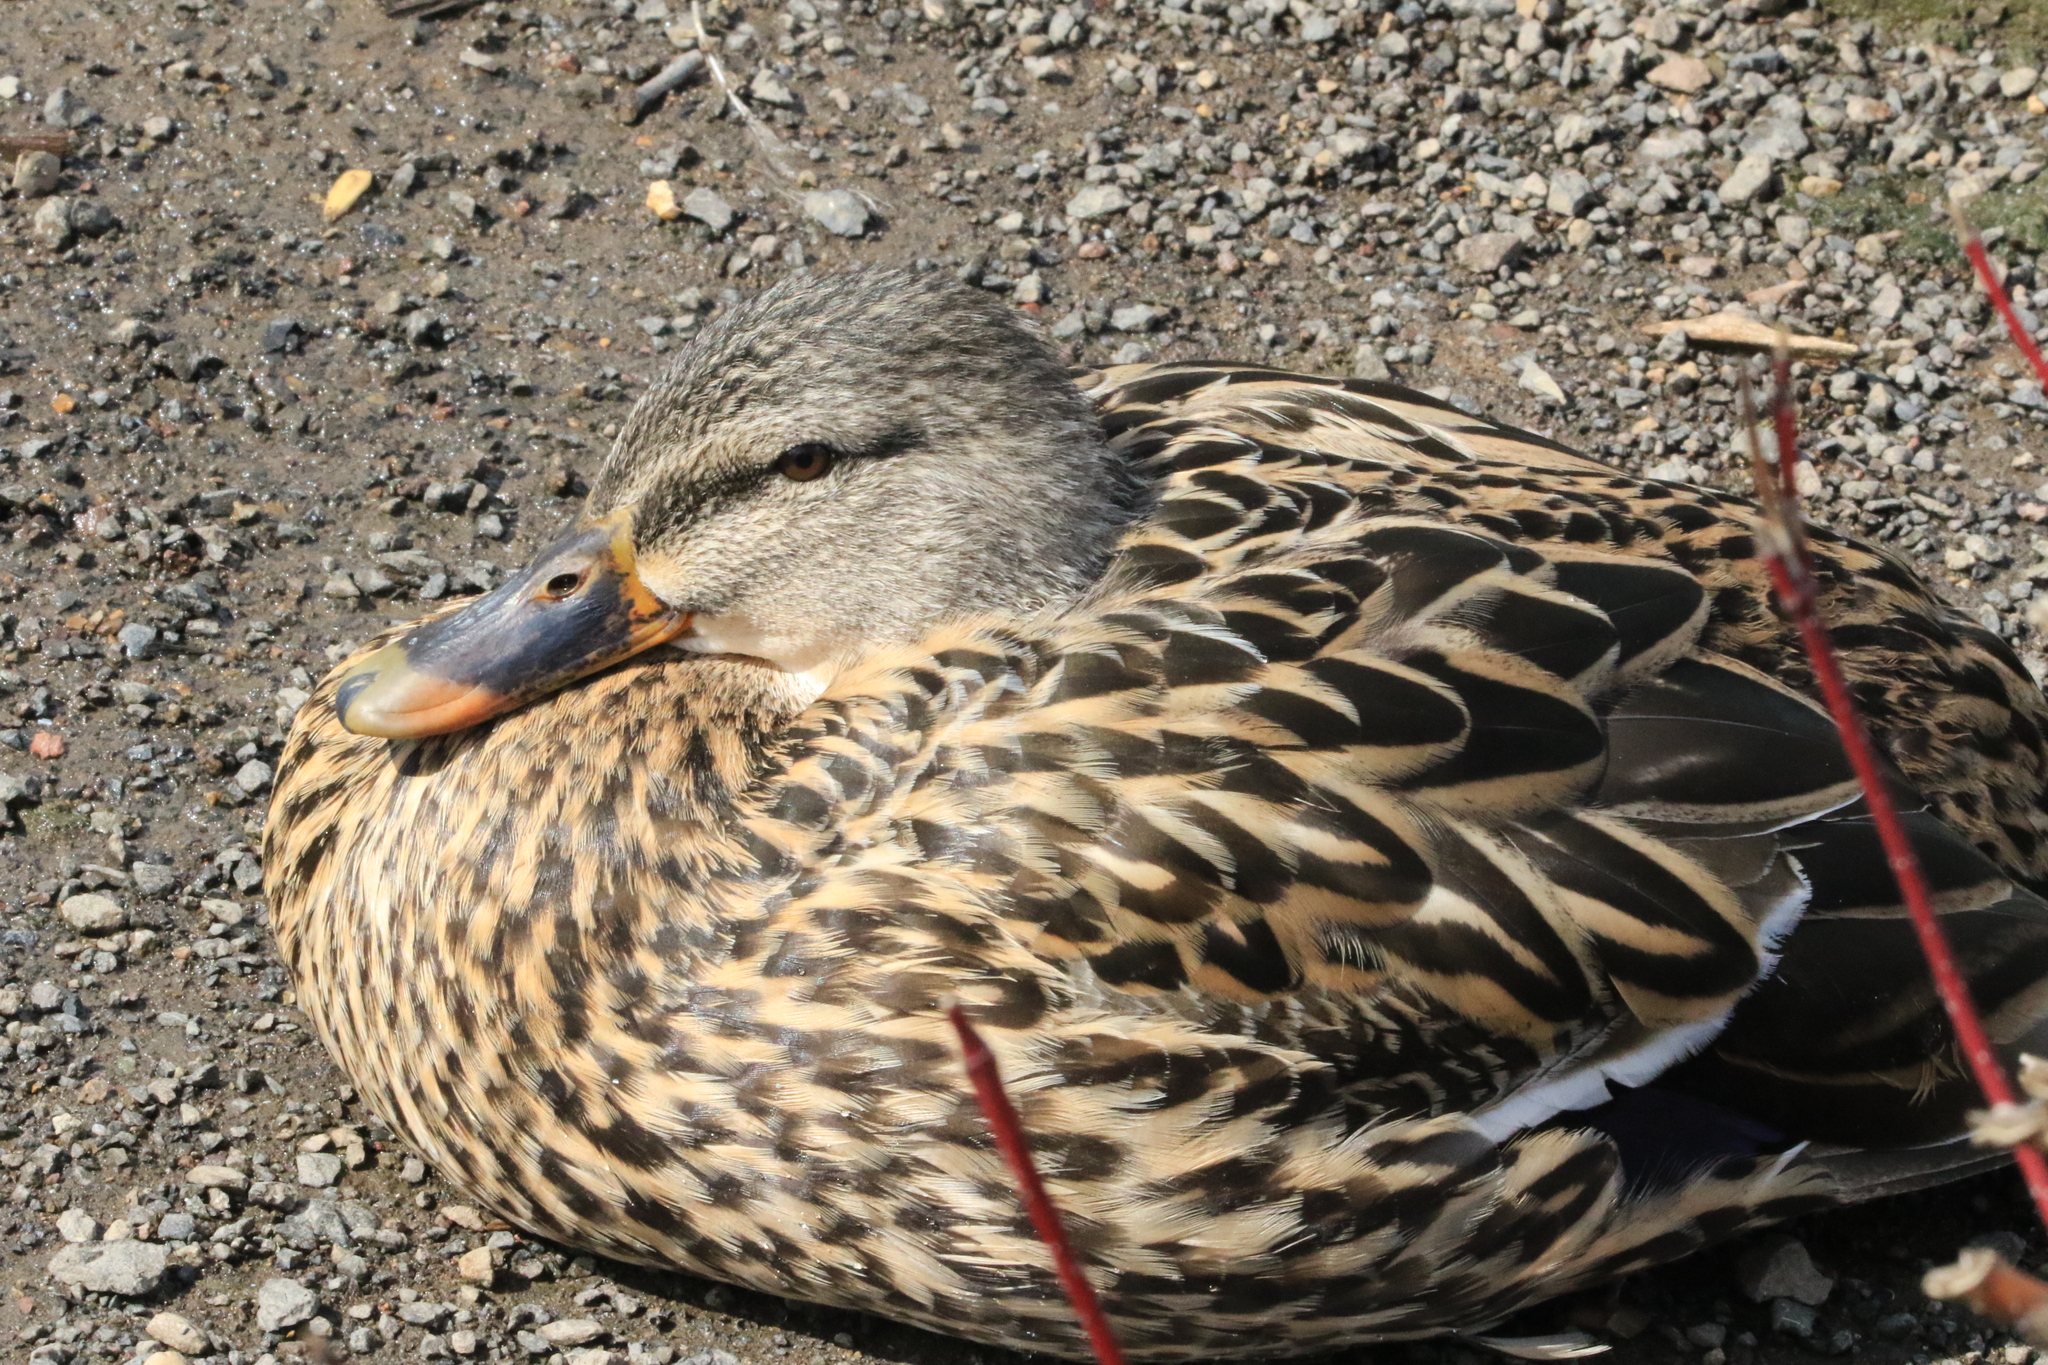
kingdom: Animalia
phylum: Chordata
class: Aves
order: Anseriformes
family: Anatidae
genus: Anas
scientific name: Anas platyrhynchos
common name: Mallard
